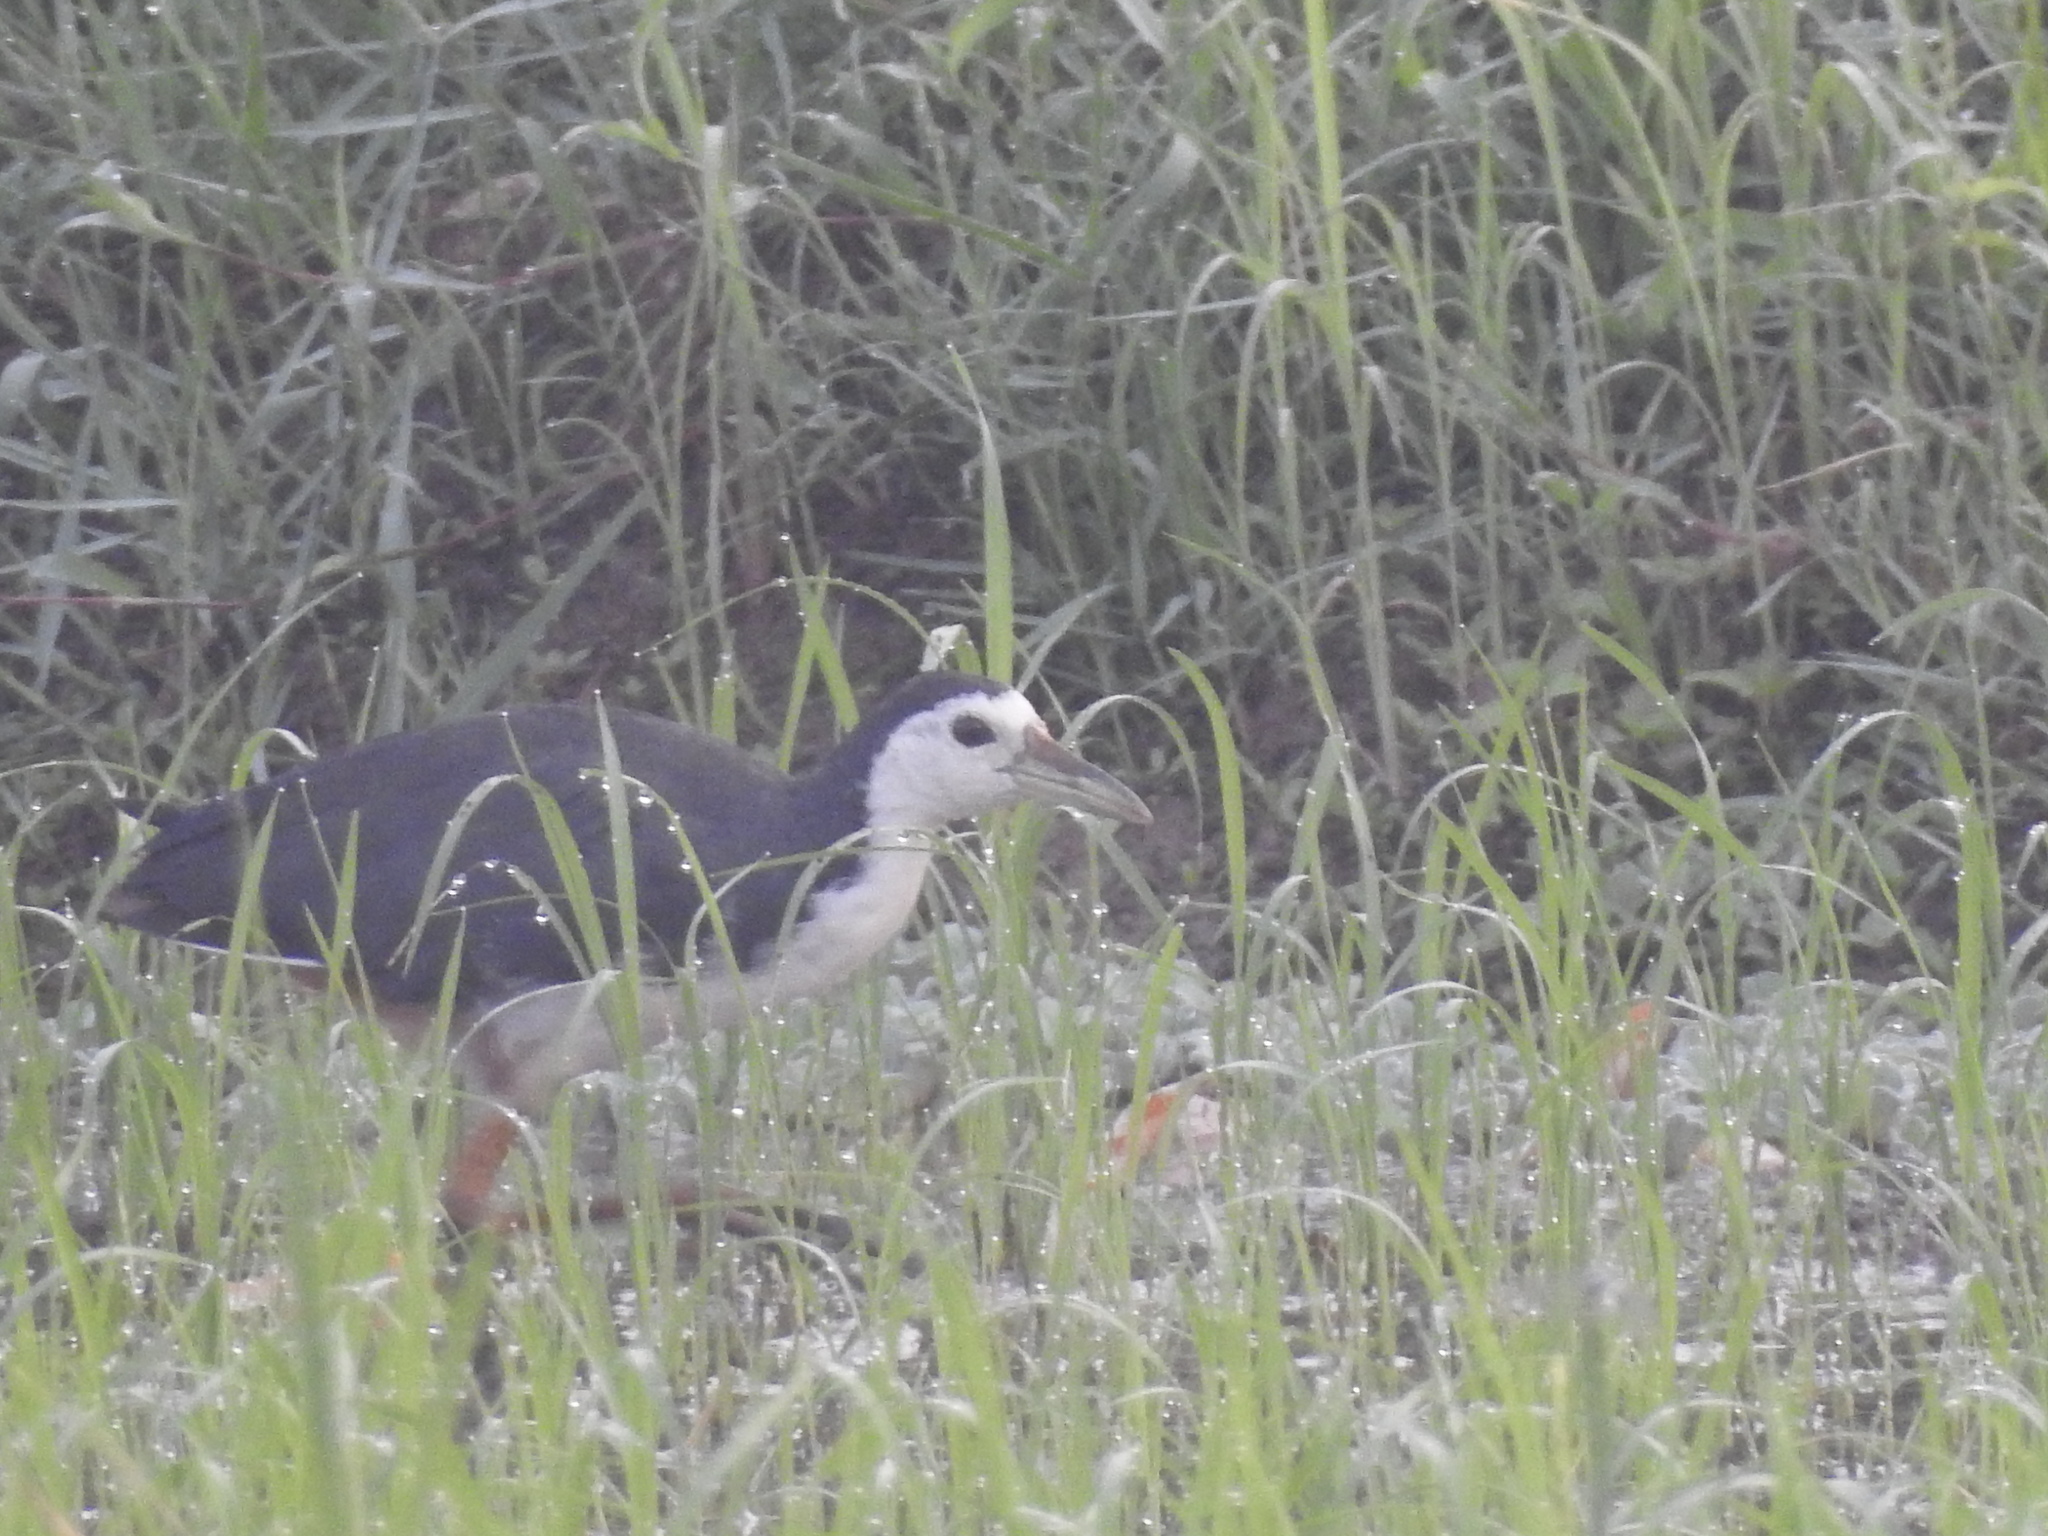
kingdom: Animalia
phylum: Chordata
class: Aves
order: Gruiformes
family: Rallidae
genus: Amaurornis
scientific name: Amaurornis phoenicurus
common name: White-breasted waterhen
